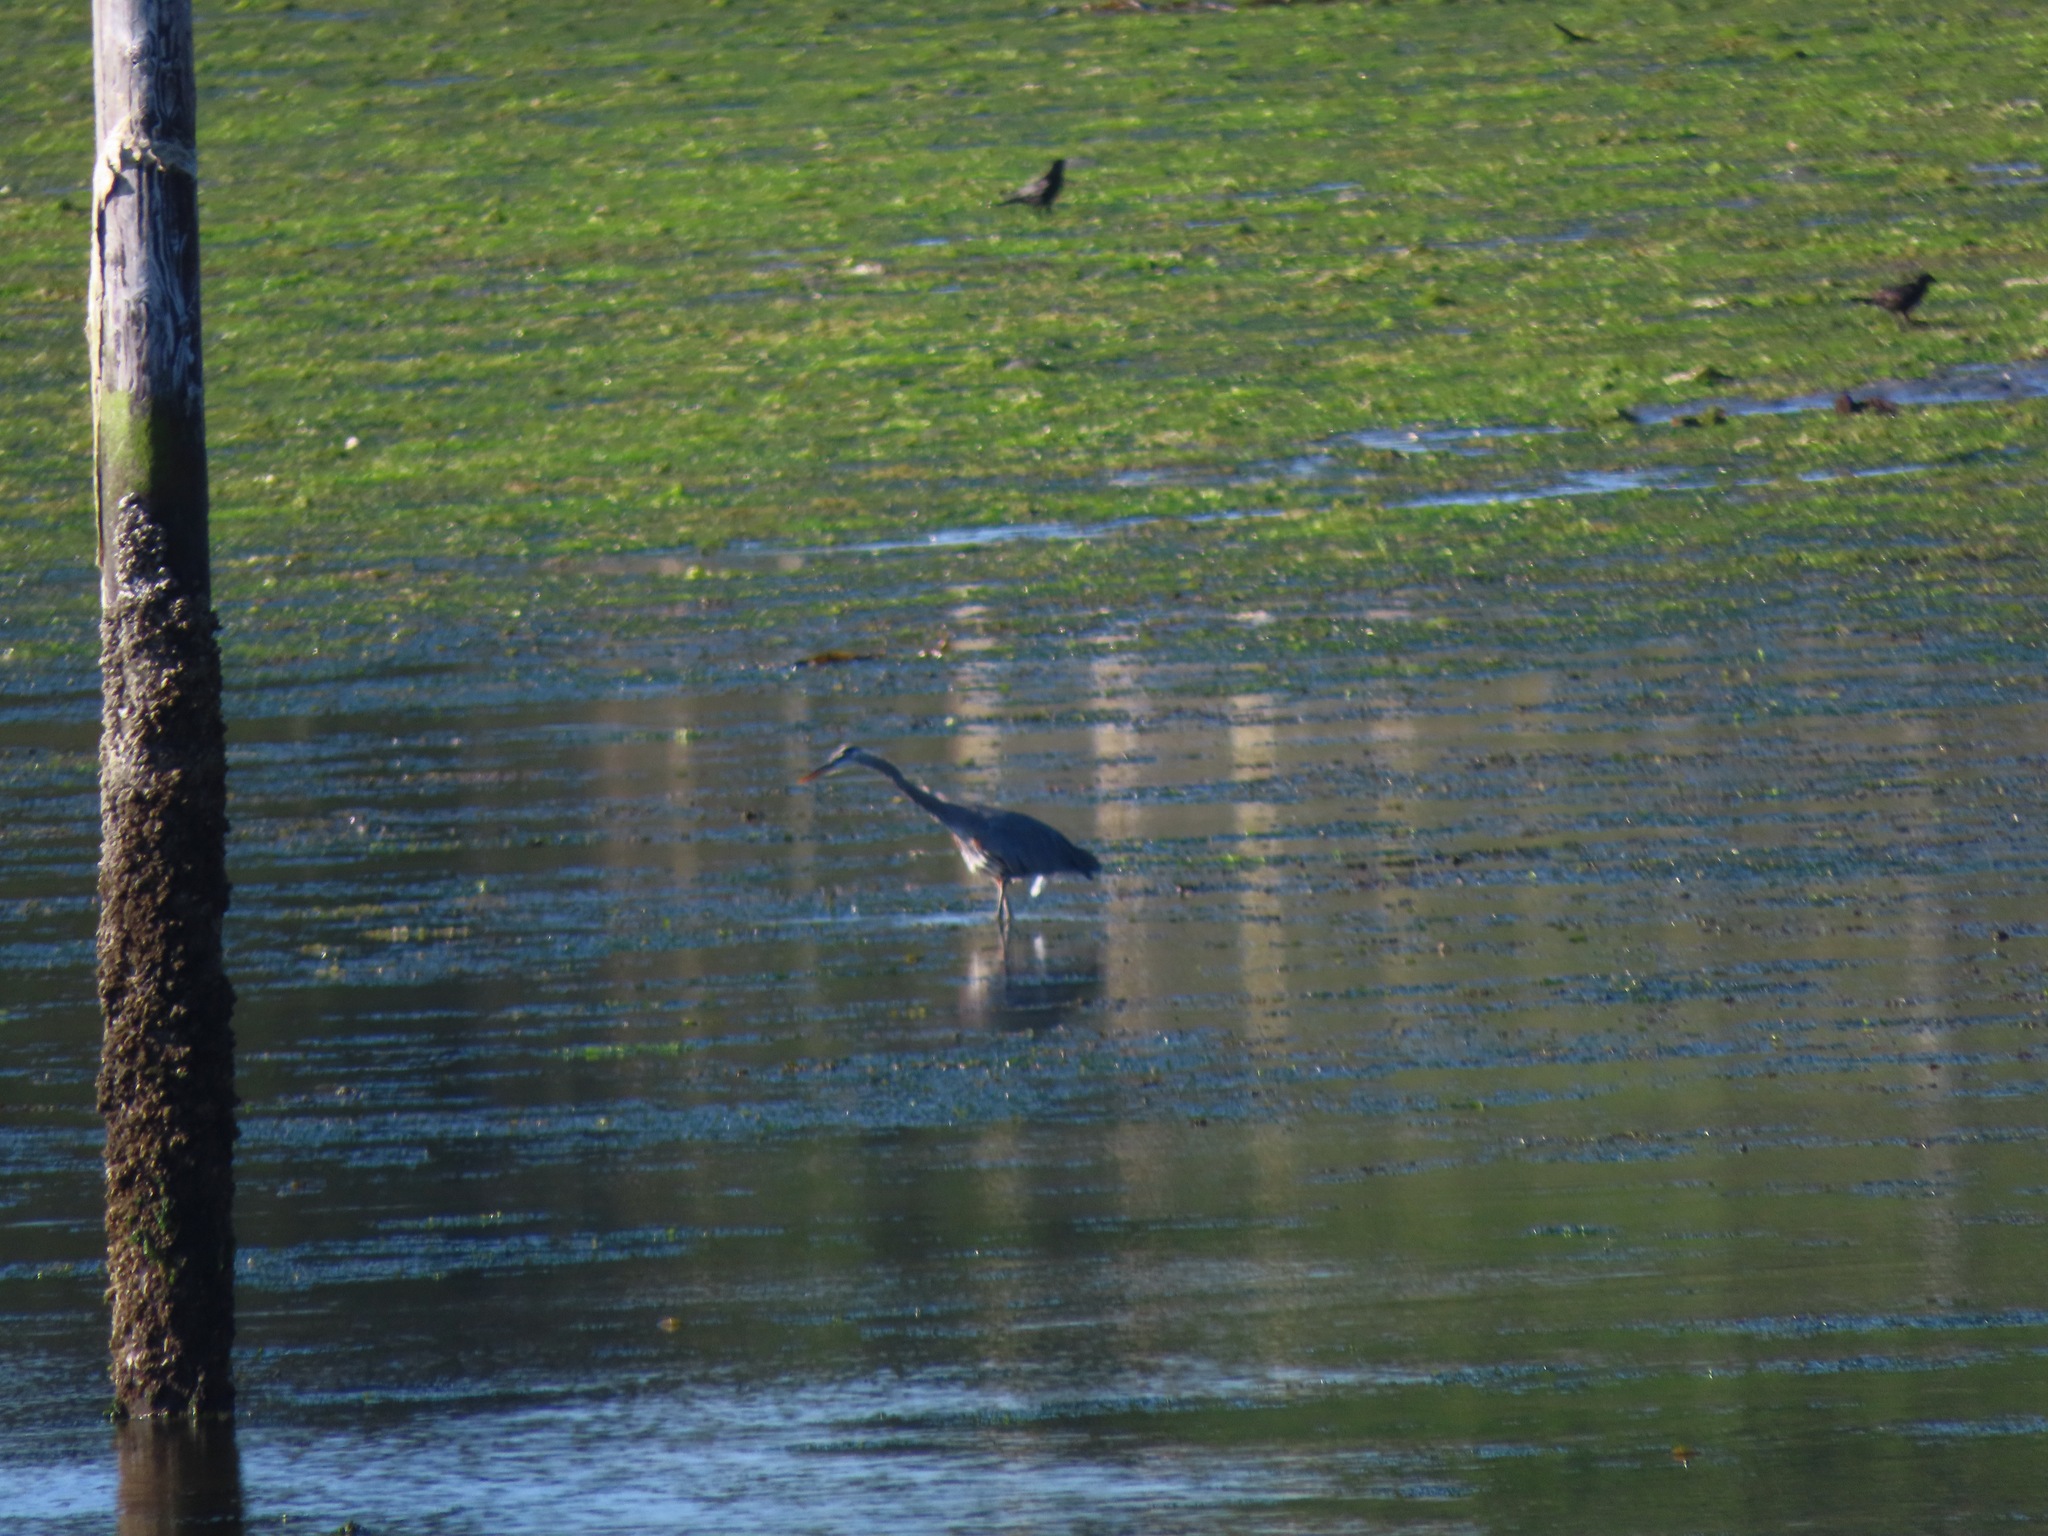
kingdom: Animalia
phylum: Chordata
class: Aves
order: Pelecaniformes
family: Ardeidae
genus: Ardea
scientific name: Ardea herodias
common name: Great blue heron
